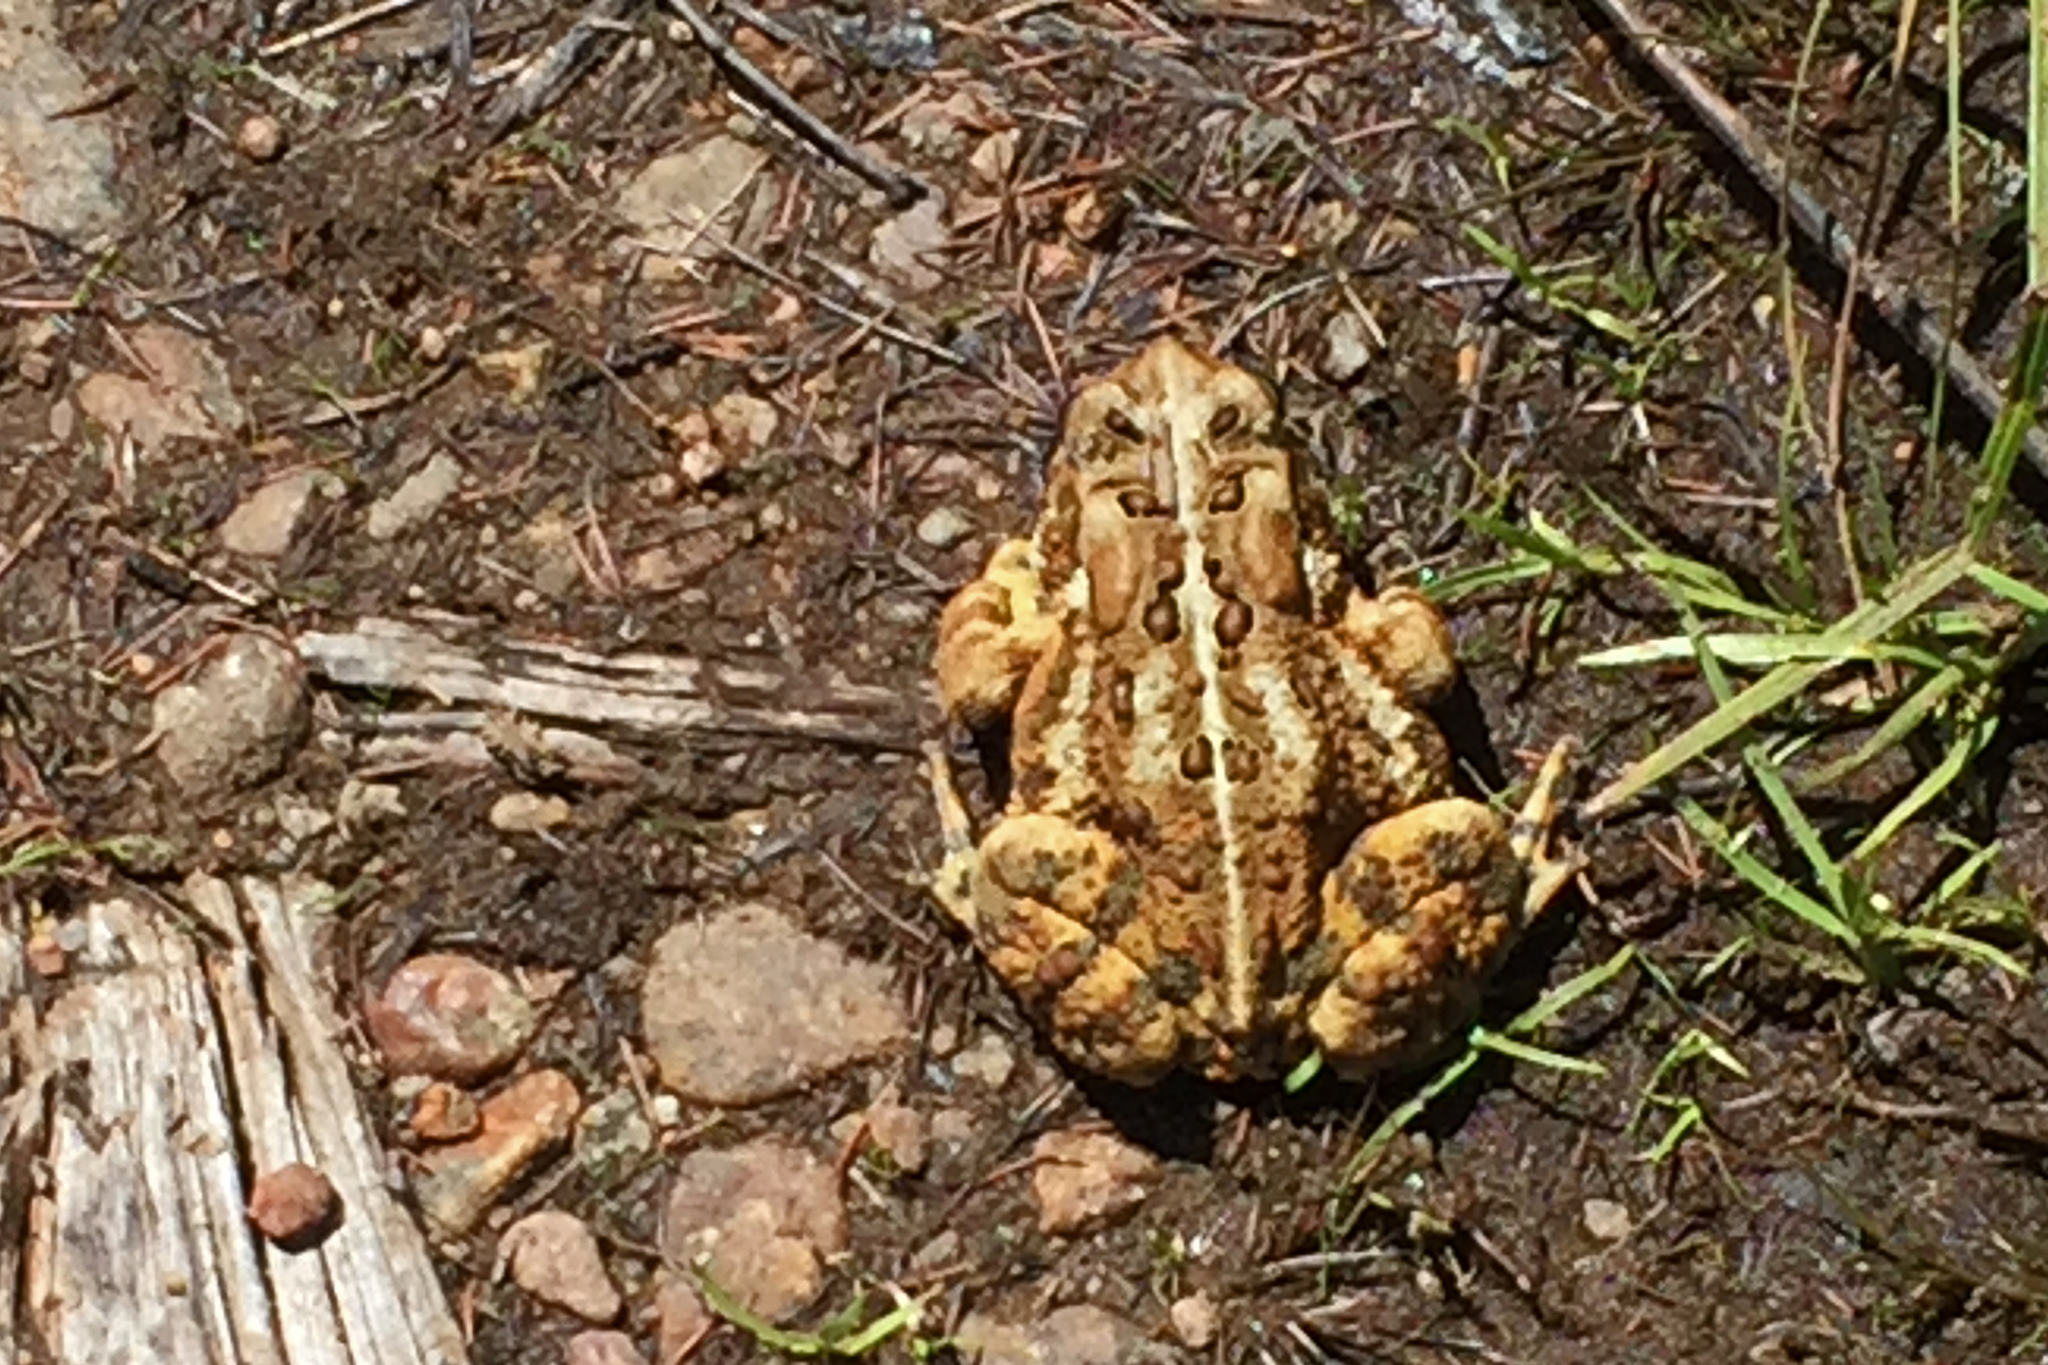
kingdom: Animalia
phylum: Chordata
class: Amphibia
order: Anura
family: Bufonidae
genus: Anaxyrus
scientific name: Anaxyrus americanus
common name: American toad
